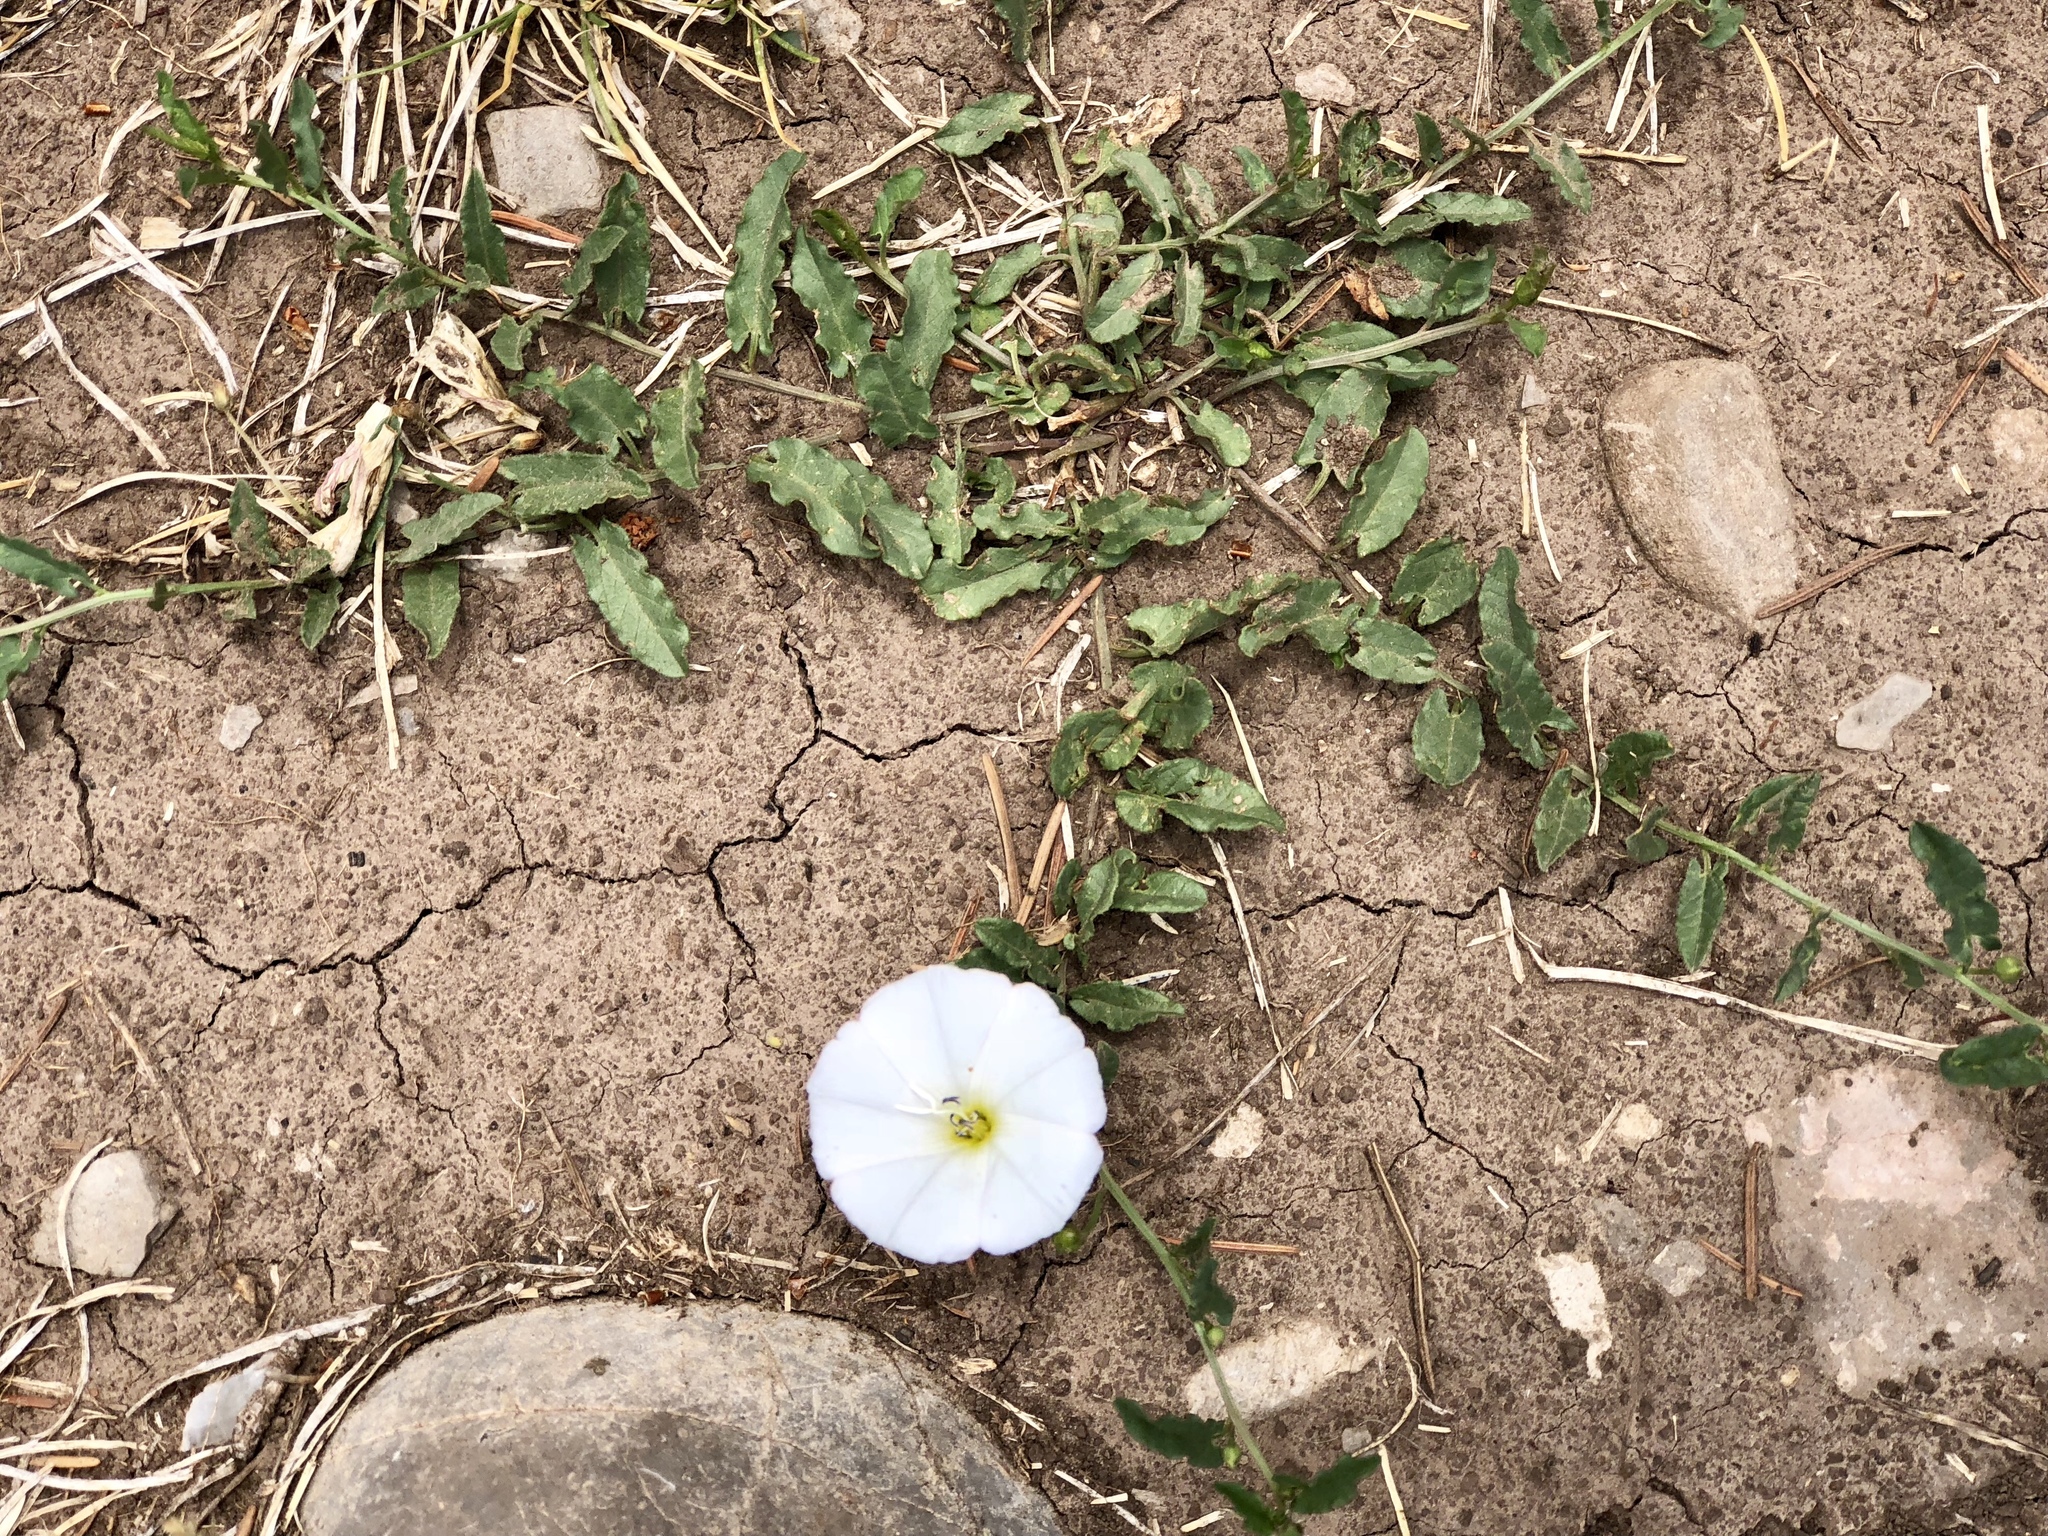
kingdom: Plantae
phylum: Tracheophyta
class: Magnoliopsida
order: Solanales
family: Convolvulaceae
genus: Convolvulus
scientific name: Convolvulus arvensis
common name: Field bindweed
